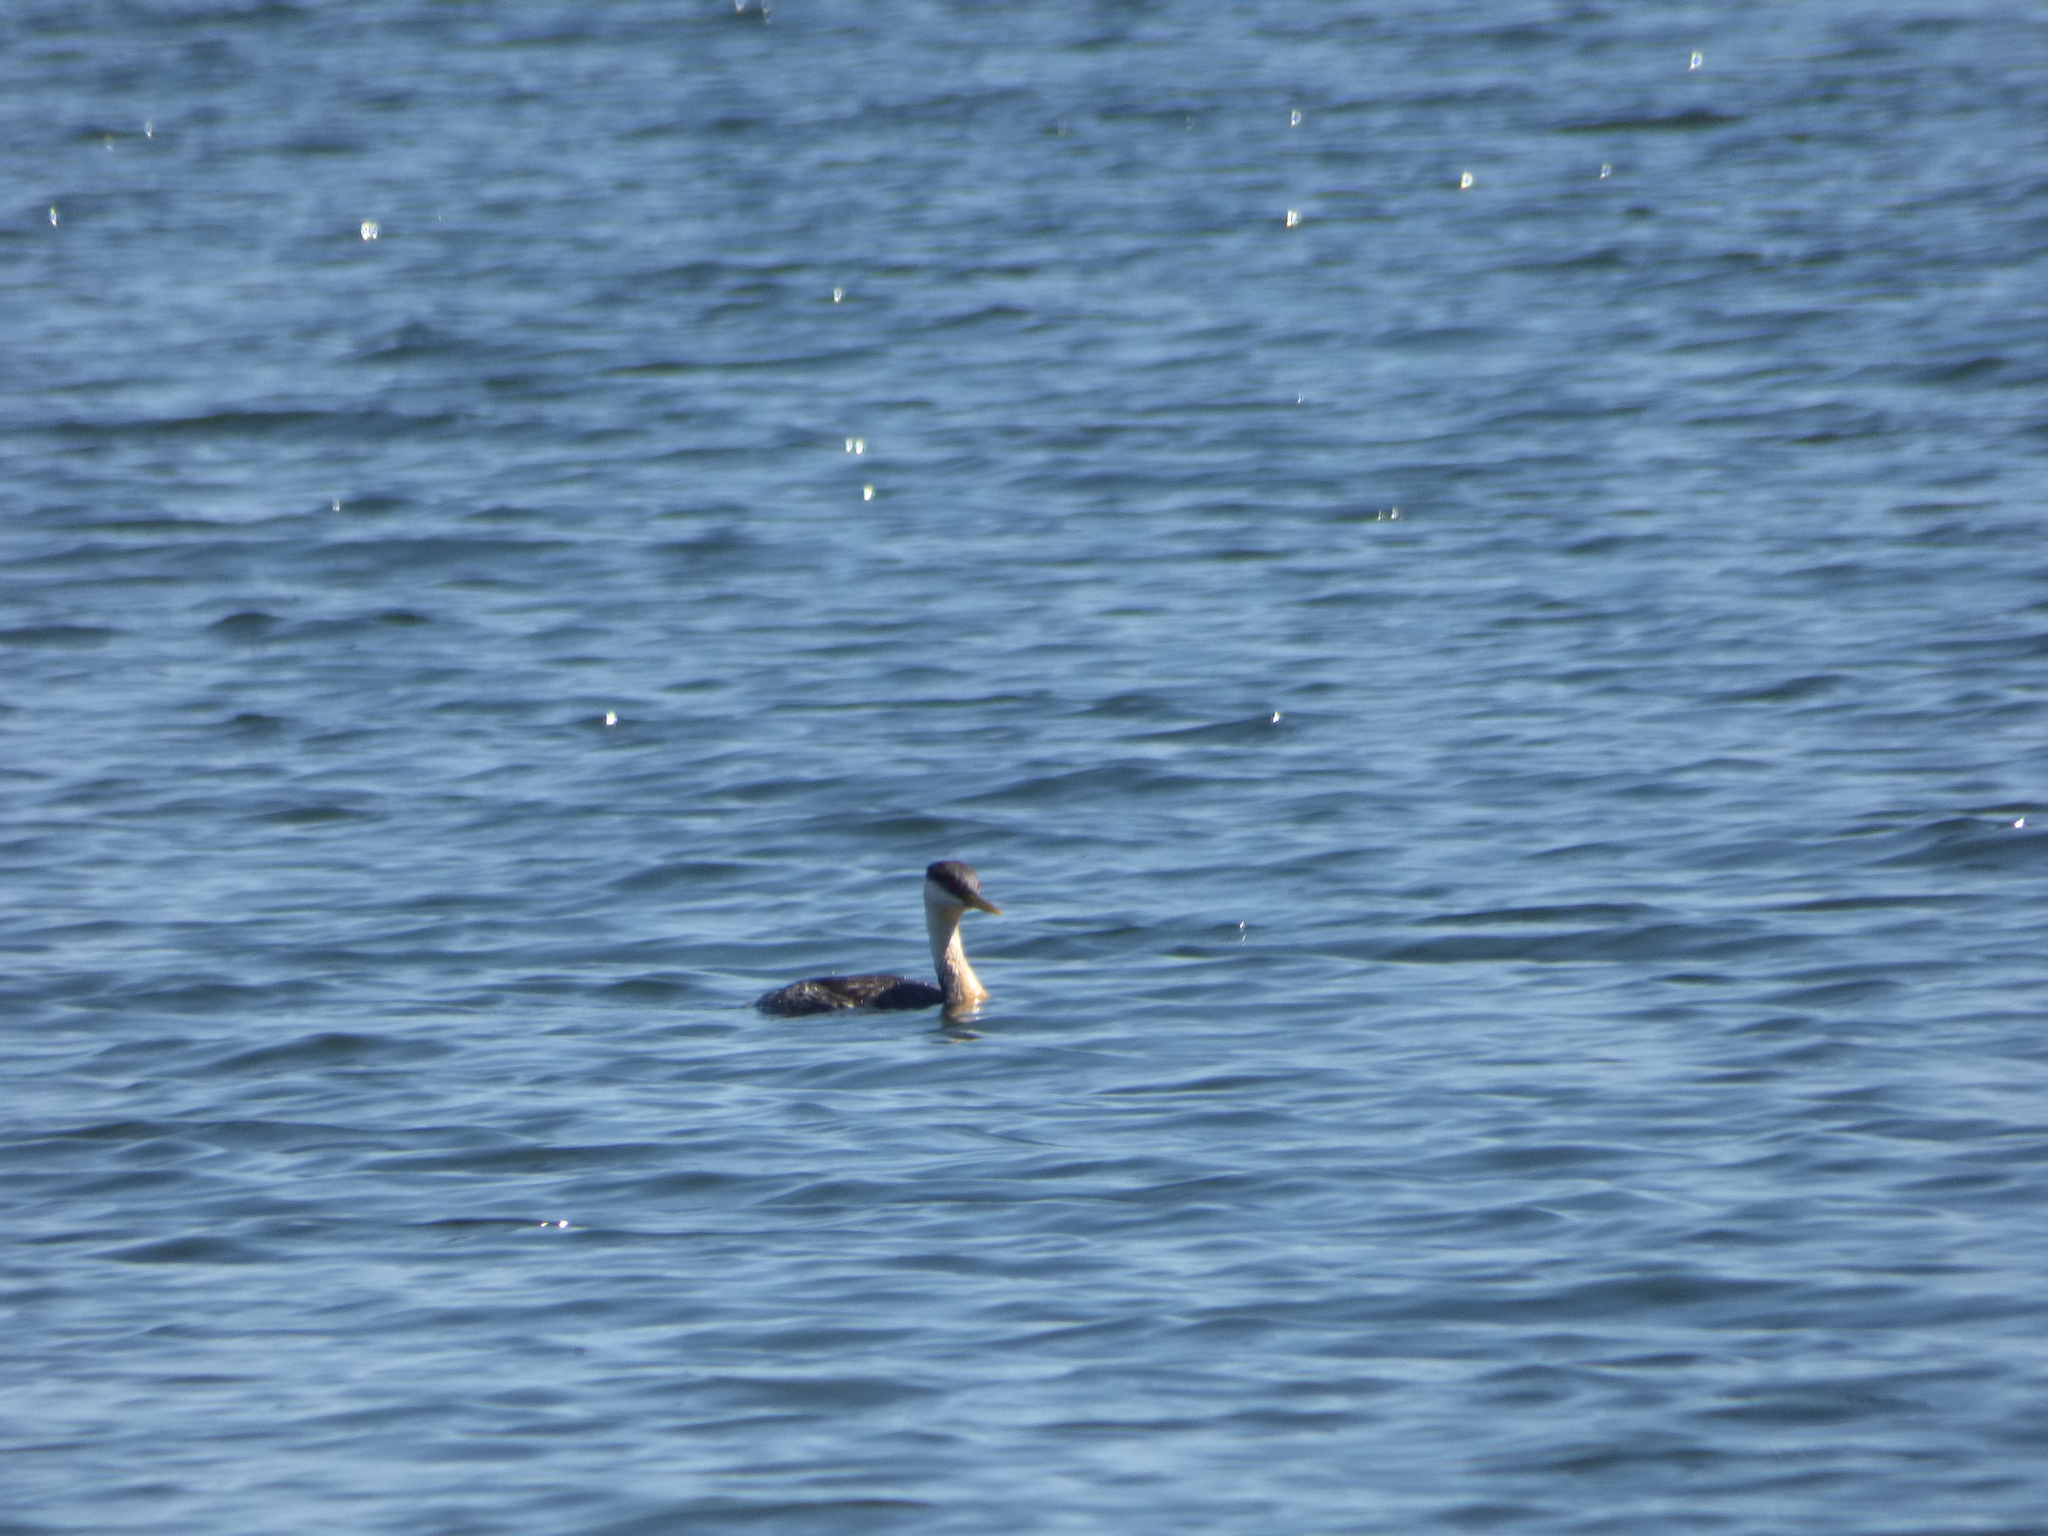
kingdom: Animalia
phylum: Chordata
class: Aves
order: Podicipediformes
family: Podicipedidae
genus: Aechmophorus
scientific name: Aechmophorus occidentalis
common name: Western grebe
